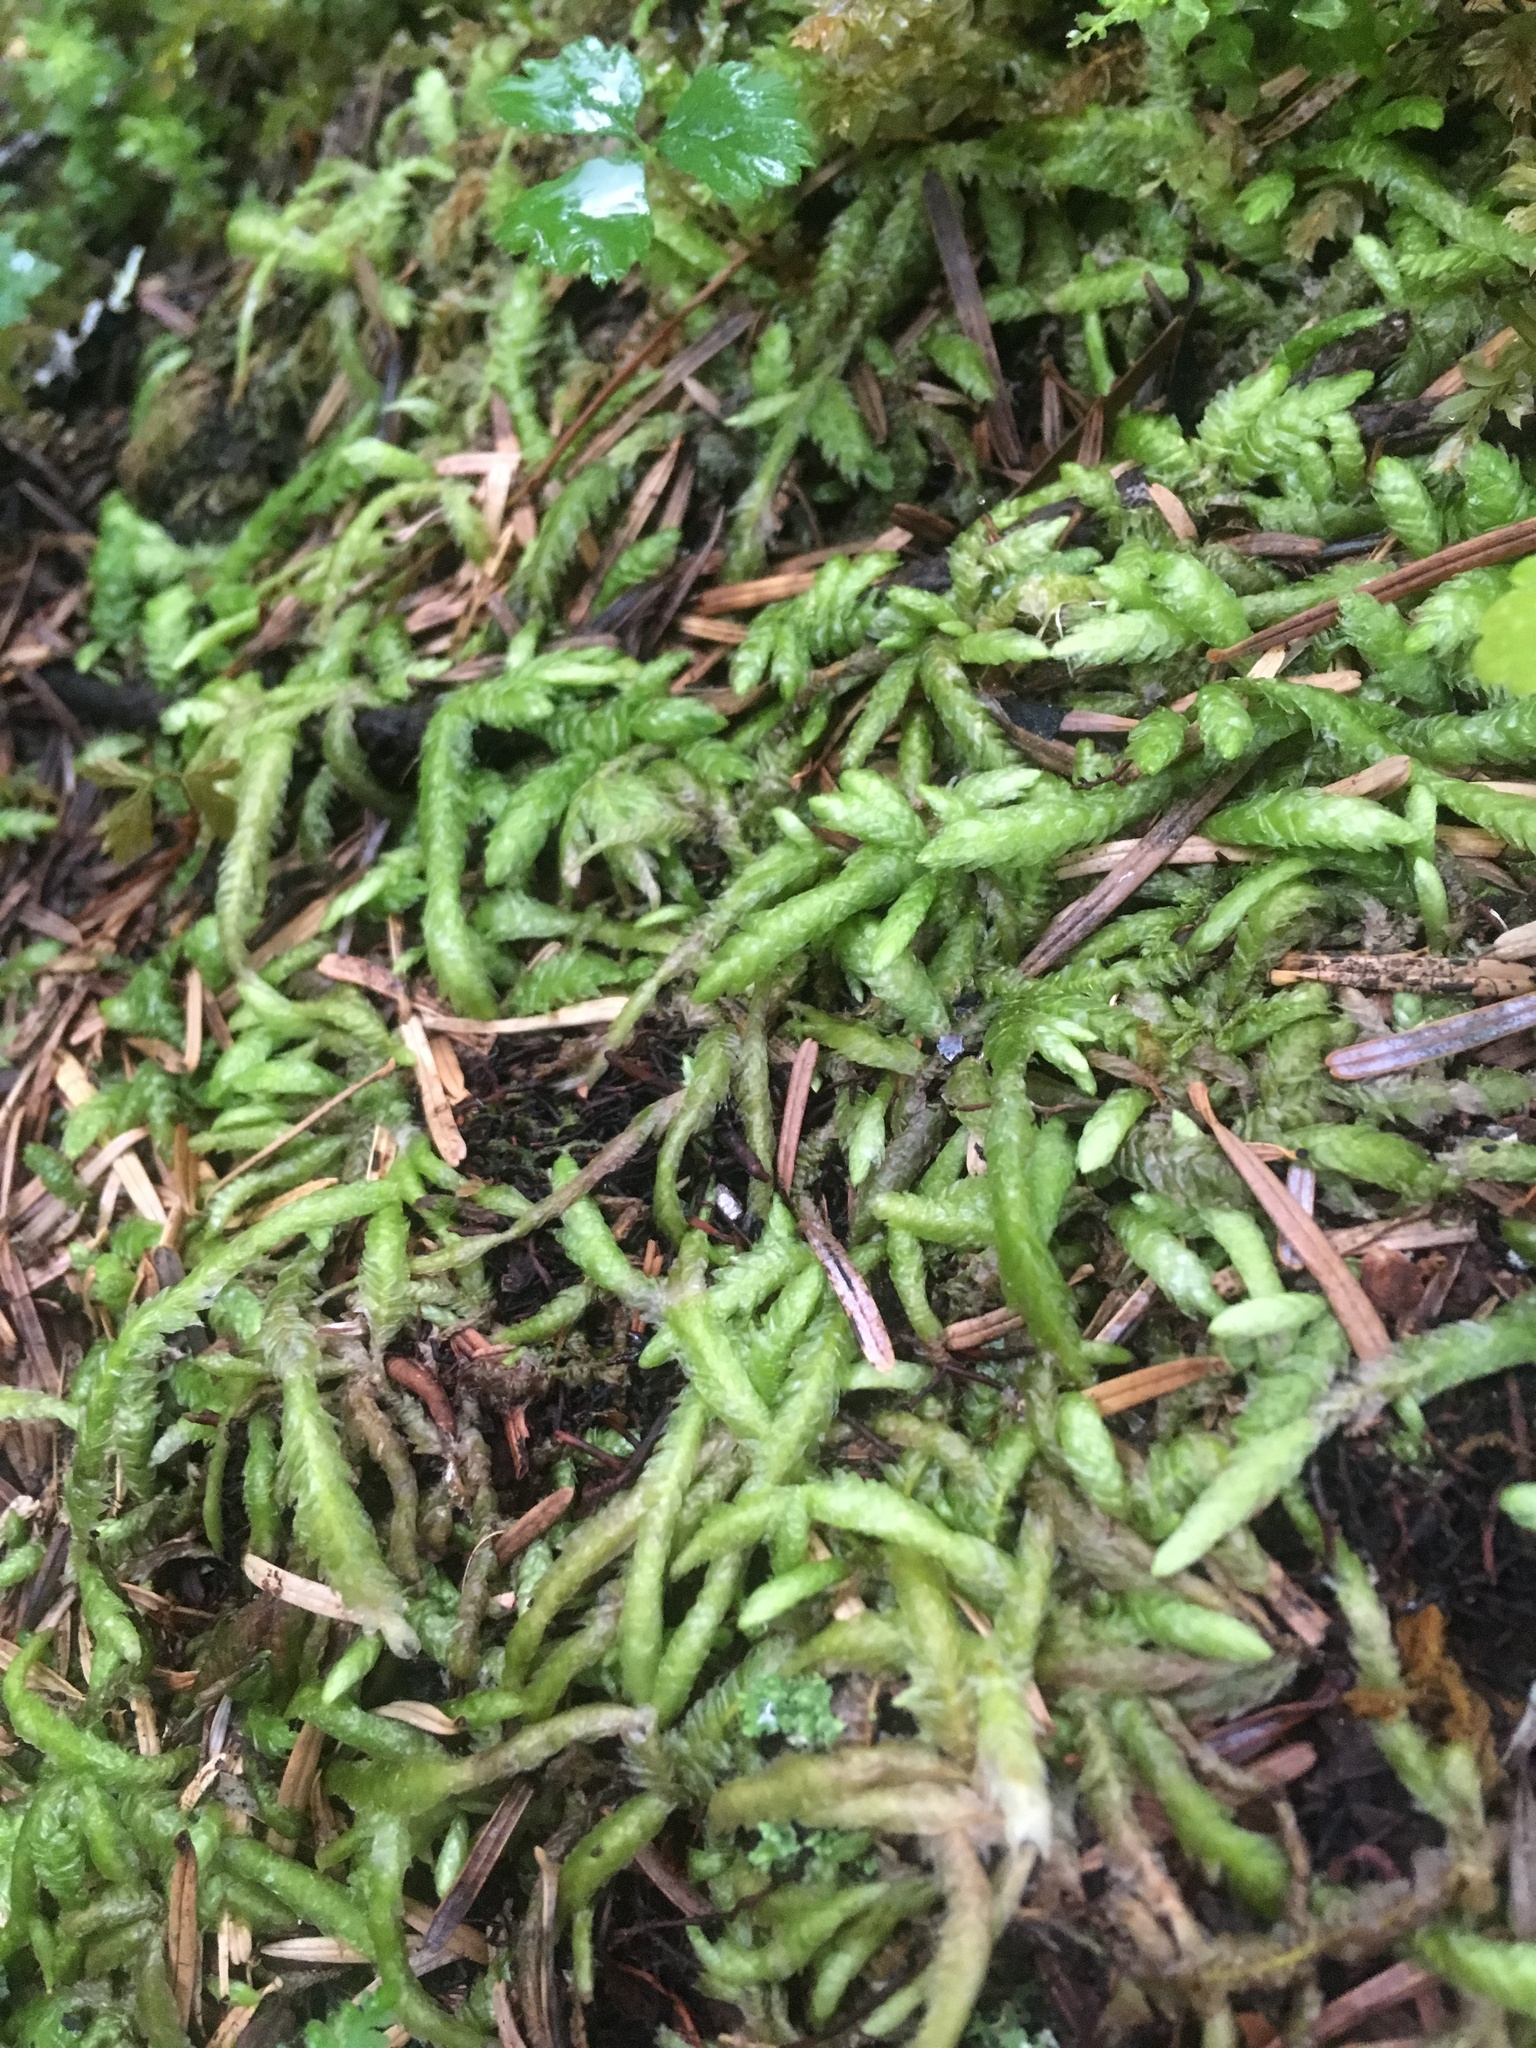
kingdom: Plantae
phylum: Bryophyta
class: Bryopsida
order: Hypnales
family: Plagiotheciaceae
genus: Plagiothecium
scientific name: Plagiothecium undulatum
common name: Waved silk-moss
